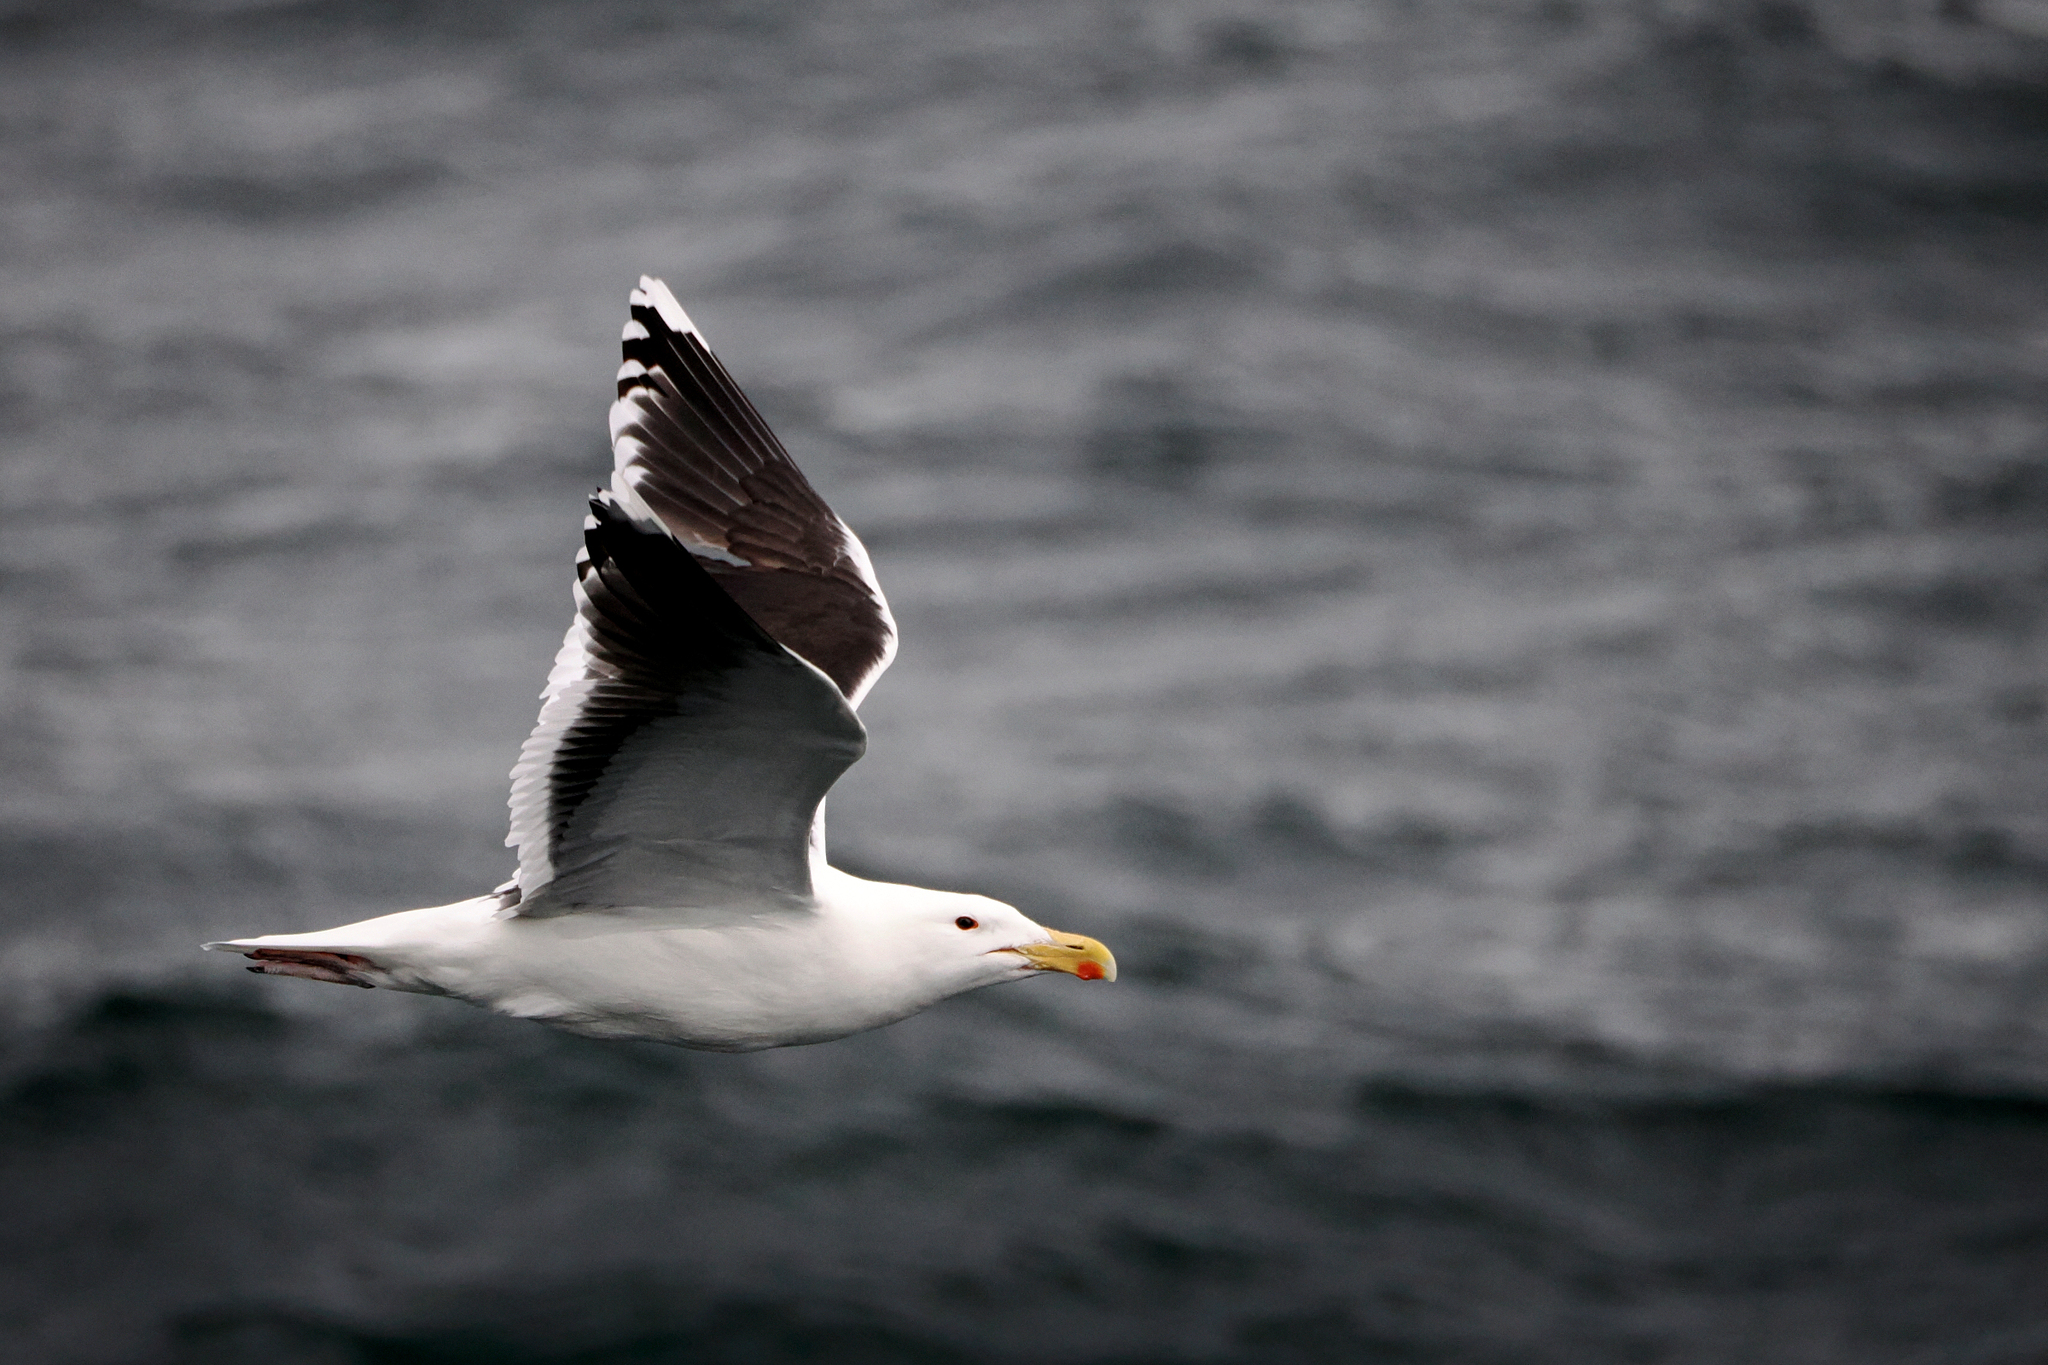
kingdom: Animalia
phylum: Chordata
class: Aves
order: Charadriiformes
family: Laridae
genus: Larus
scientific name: Larus marinus
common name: Great black-backed gull
